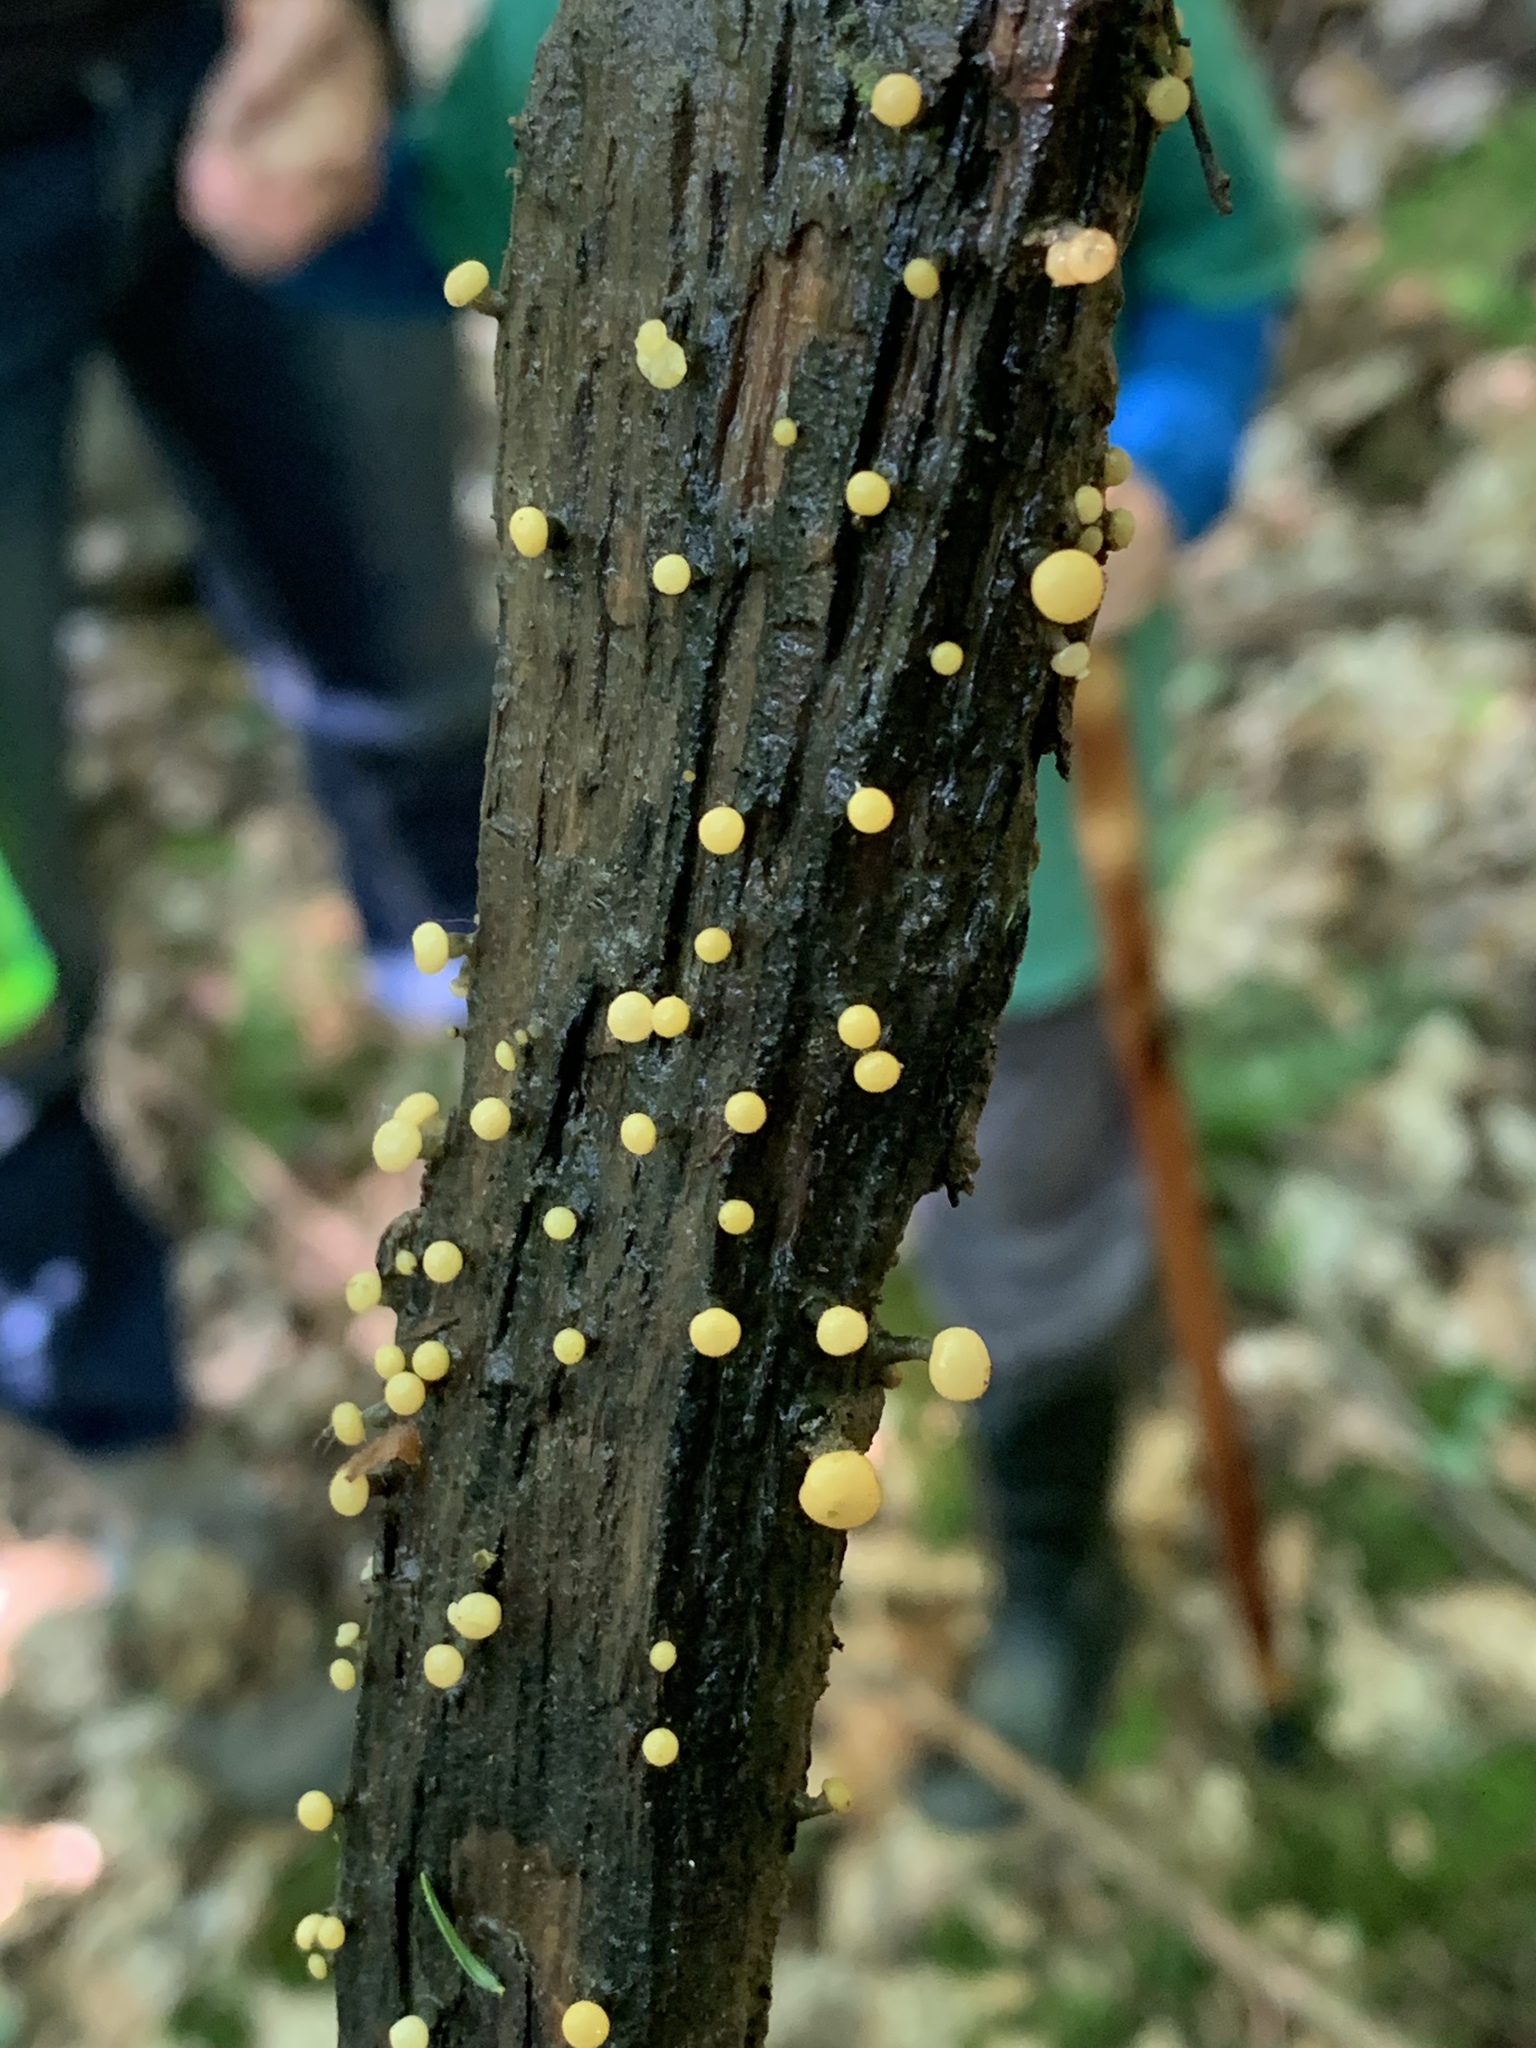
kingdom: Fungi
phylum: Ascomycota
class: Leotiomycetes
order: Helotiales
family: Vibrisseaceae
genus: Vibrissea
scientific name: Vibrissea truncorum
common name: Stream beacon
